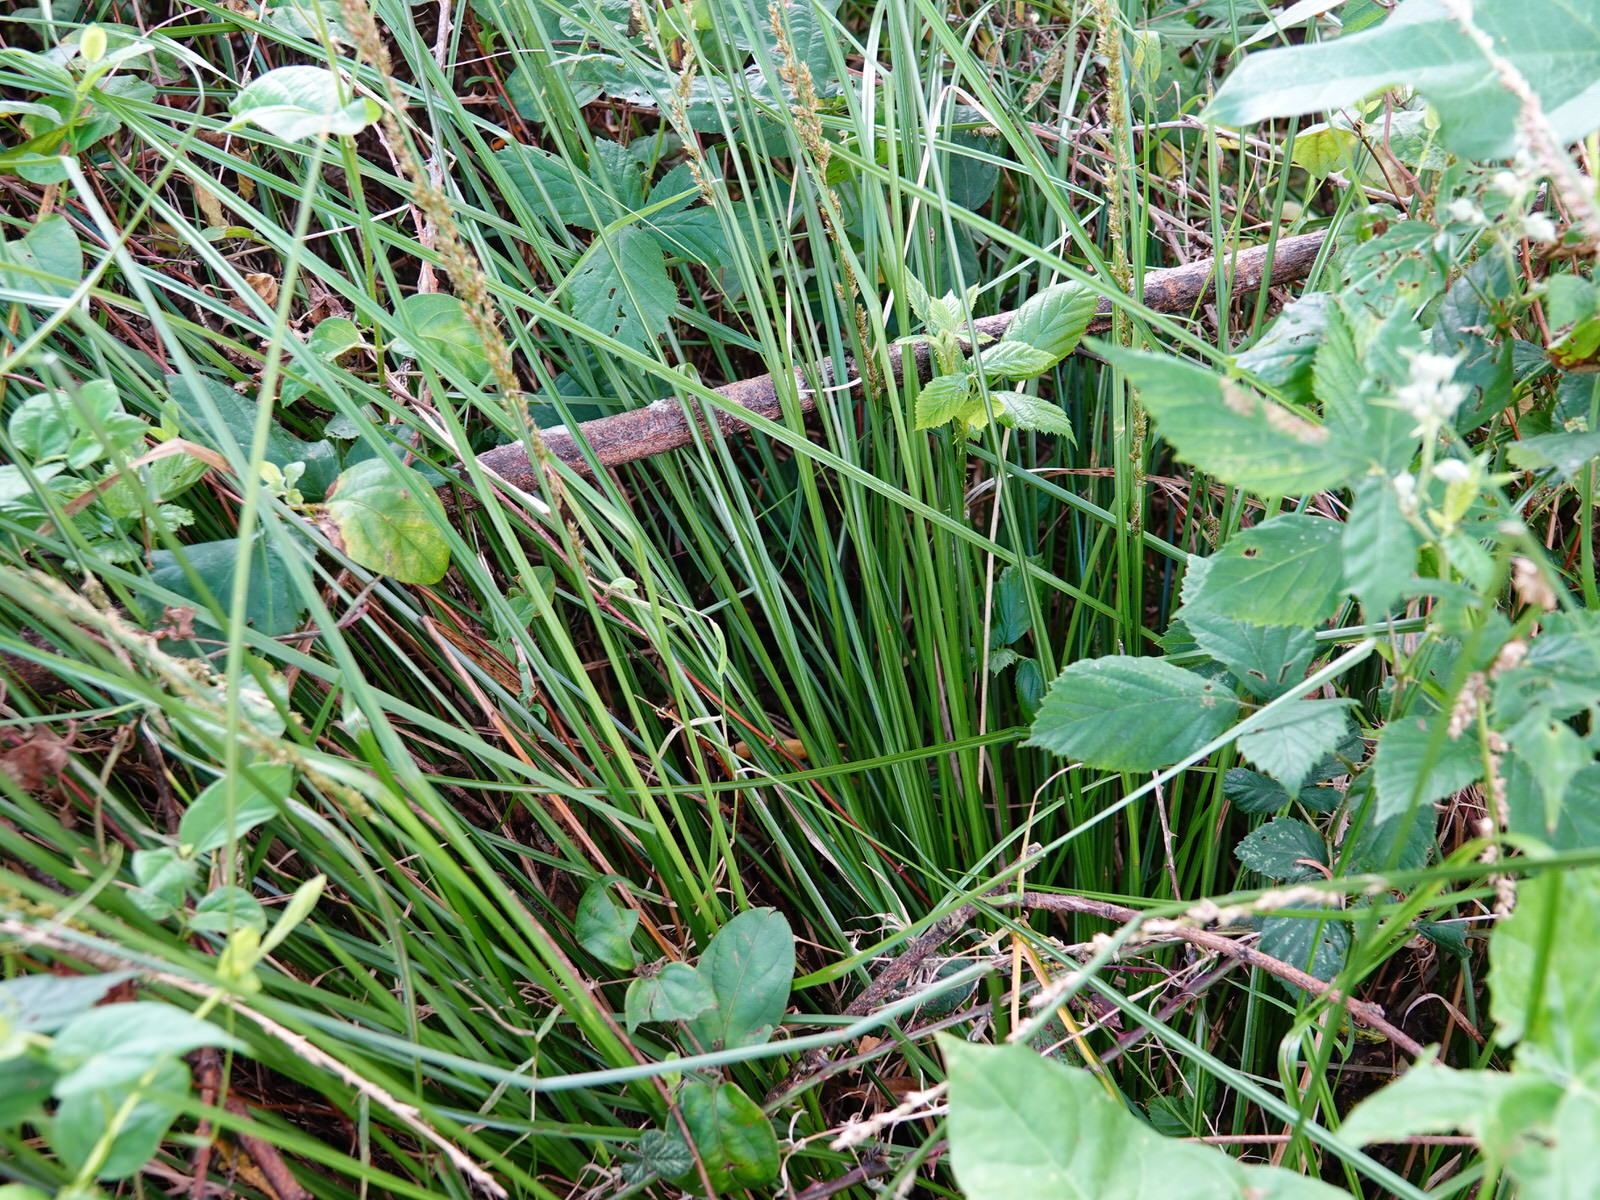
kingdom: Plantae
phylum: Tracheophyta
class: Liliopsida
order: Poales
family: Cyperaceae
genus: Carex
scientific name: Carex virgata
